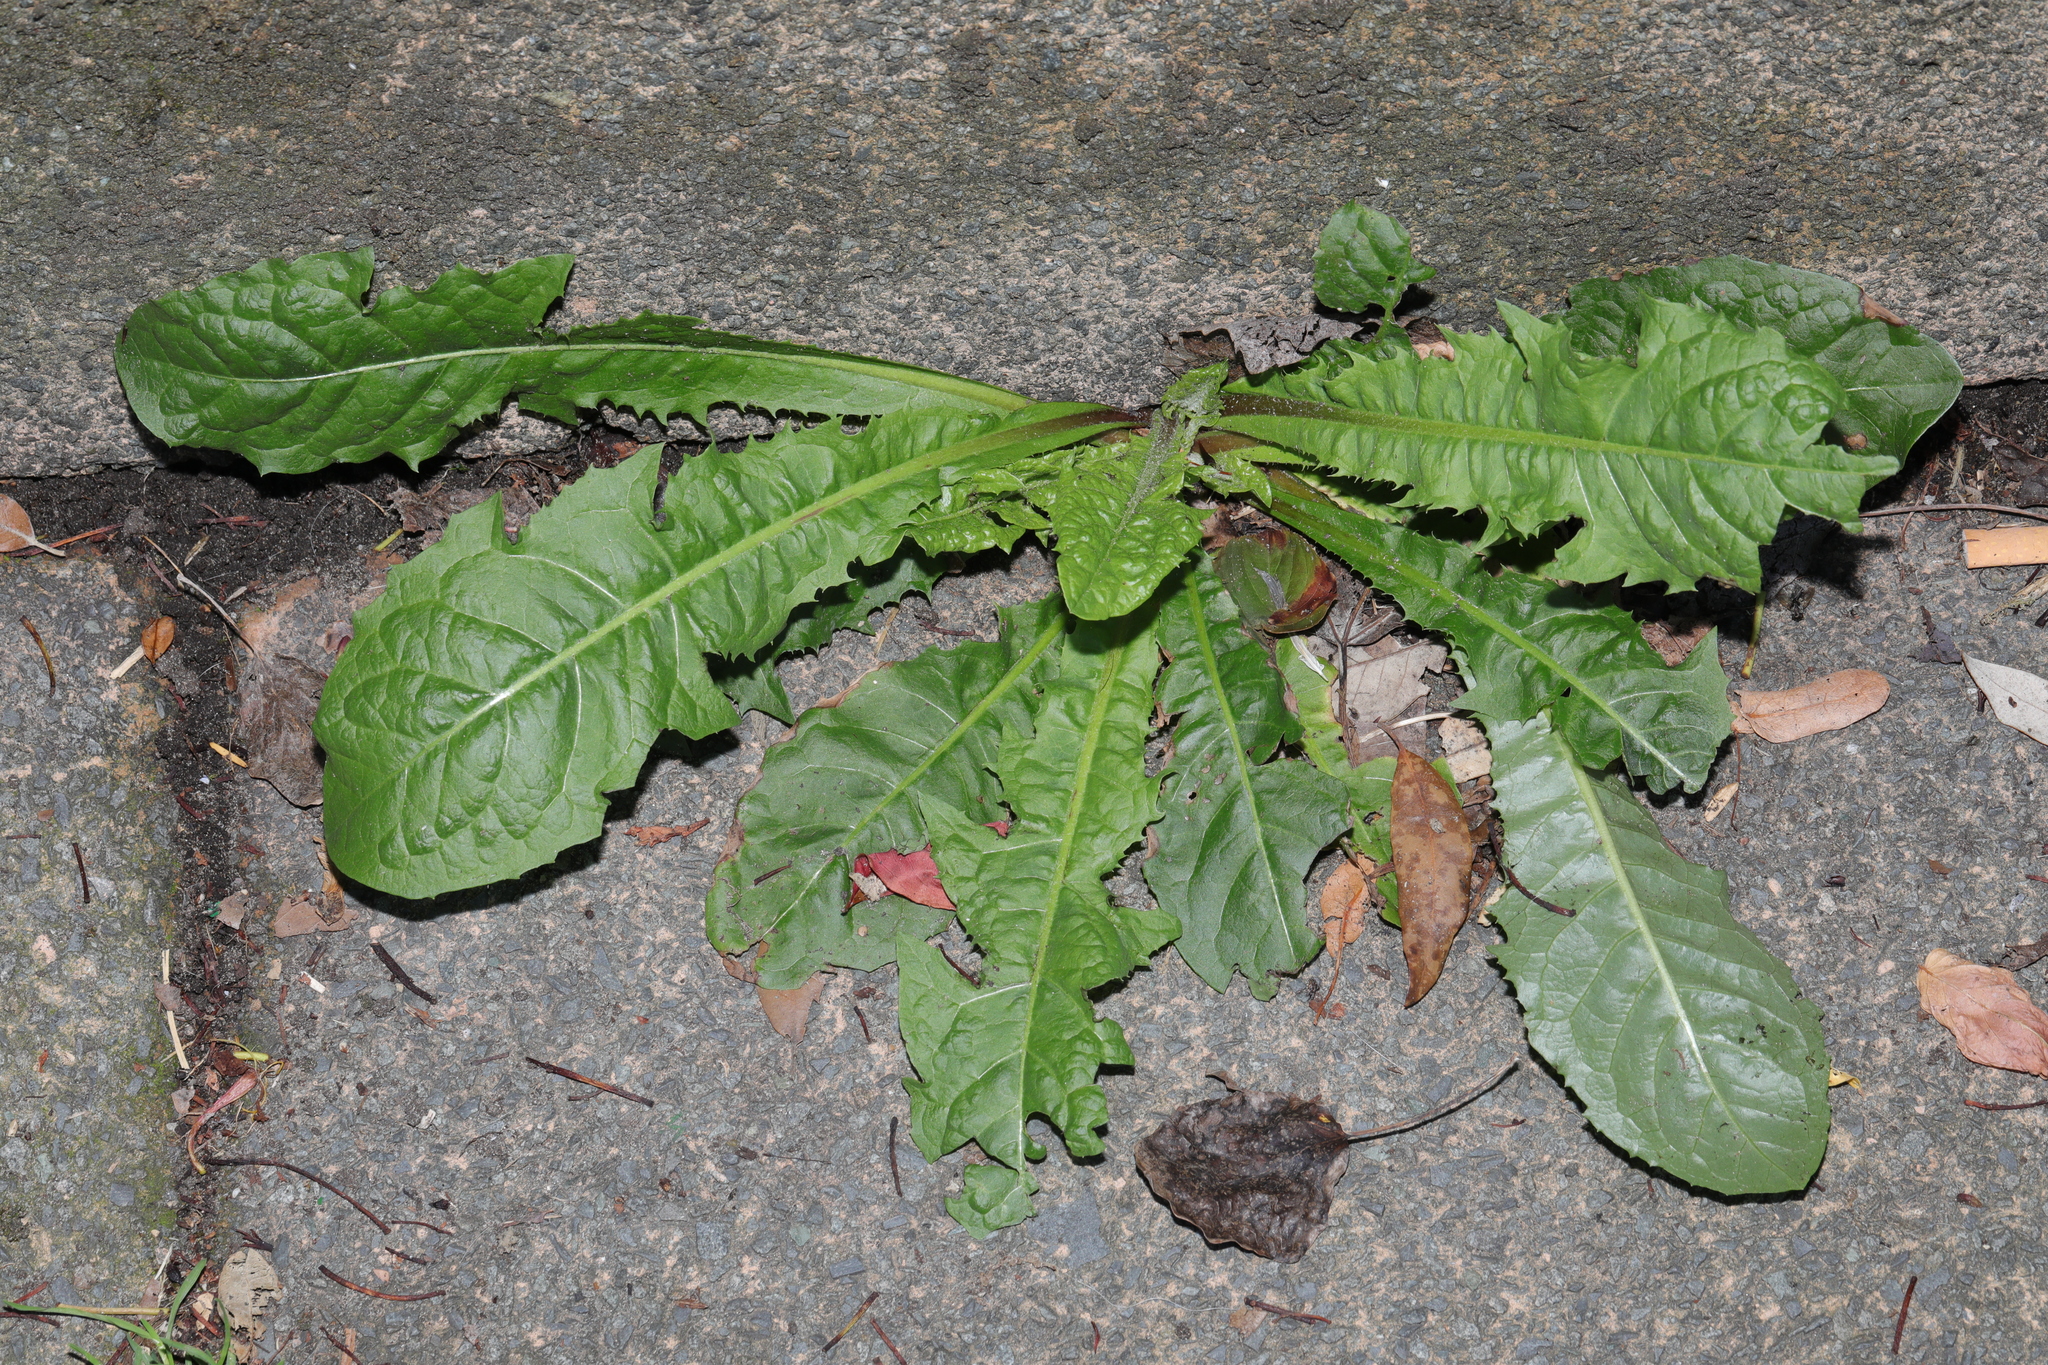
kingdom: Plantae
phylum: Tracheophyta
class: Magnoliopsida
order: Asterales
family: Asteraceae
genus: Taraxacum
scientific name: Taraxacum officinale
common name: Common dandelion
